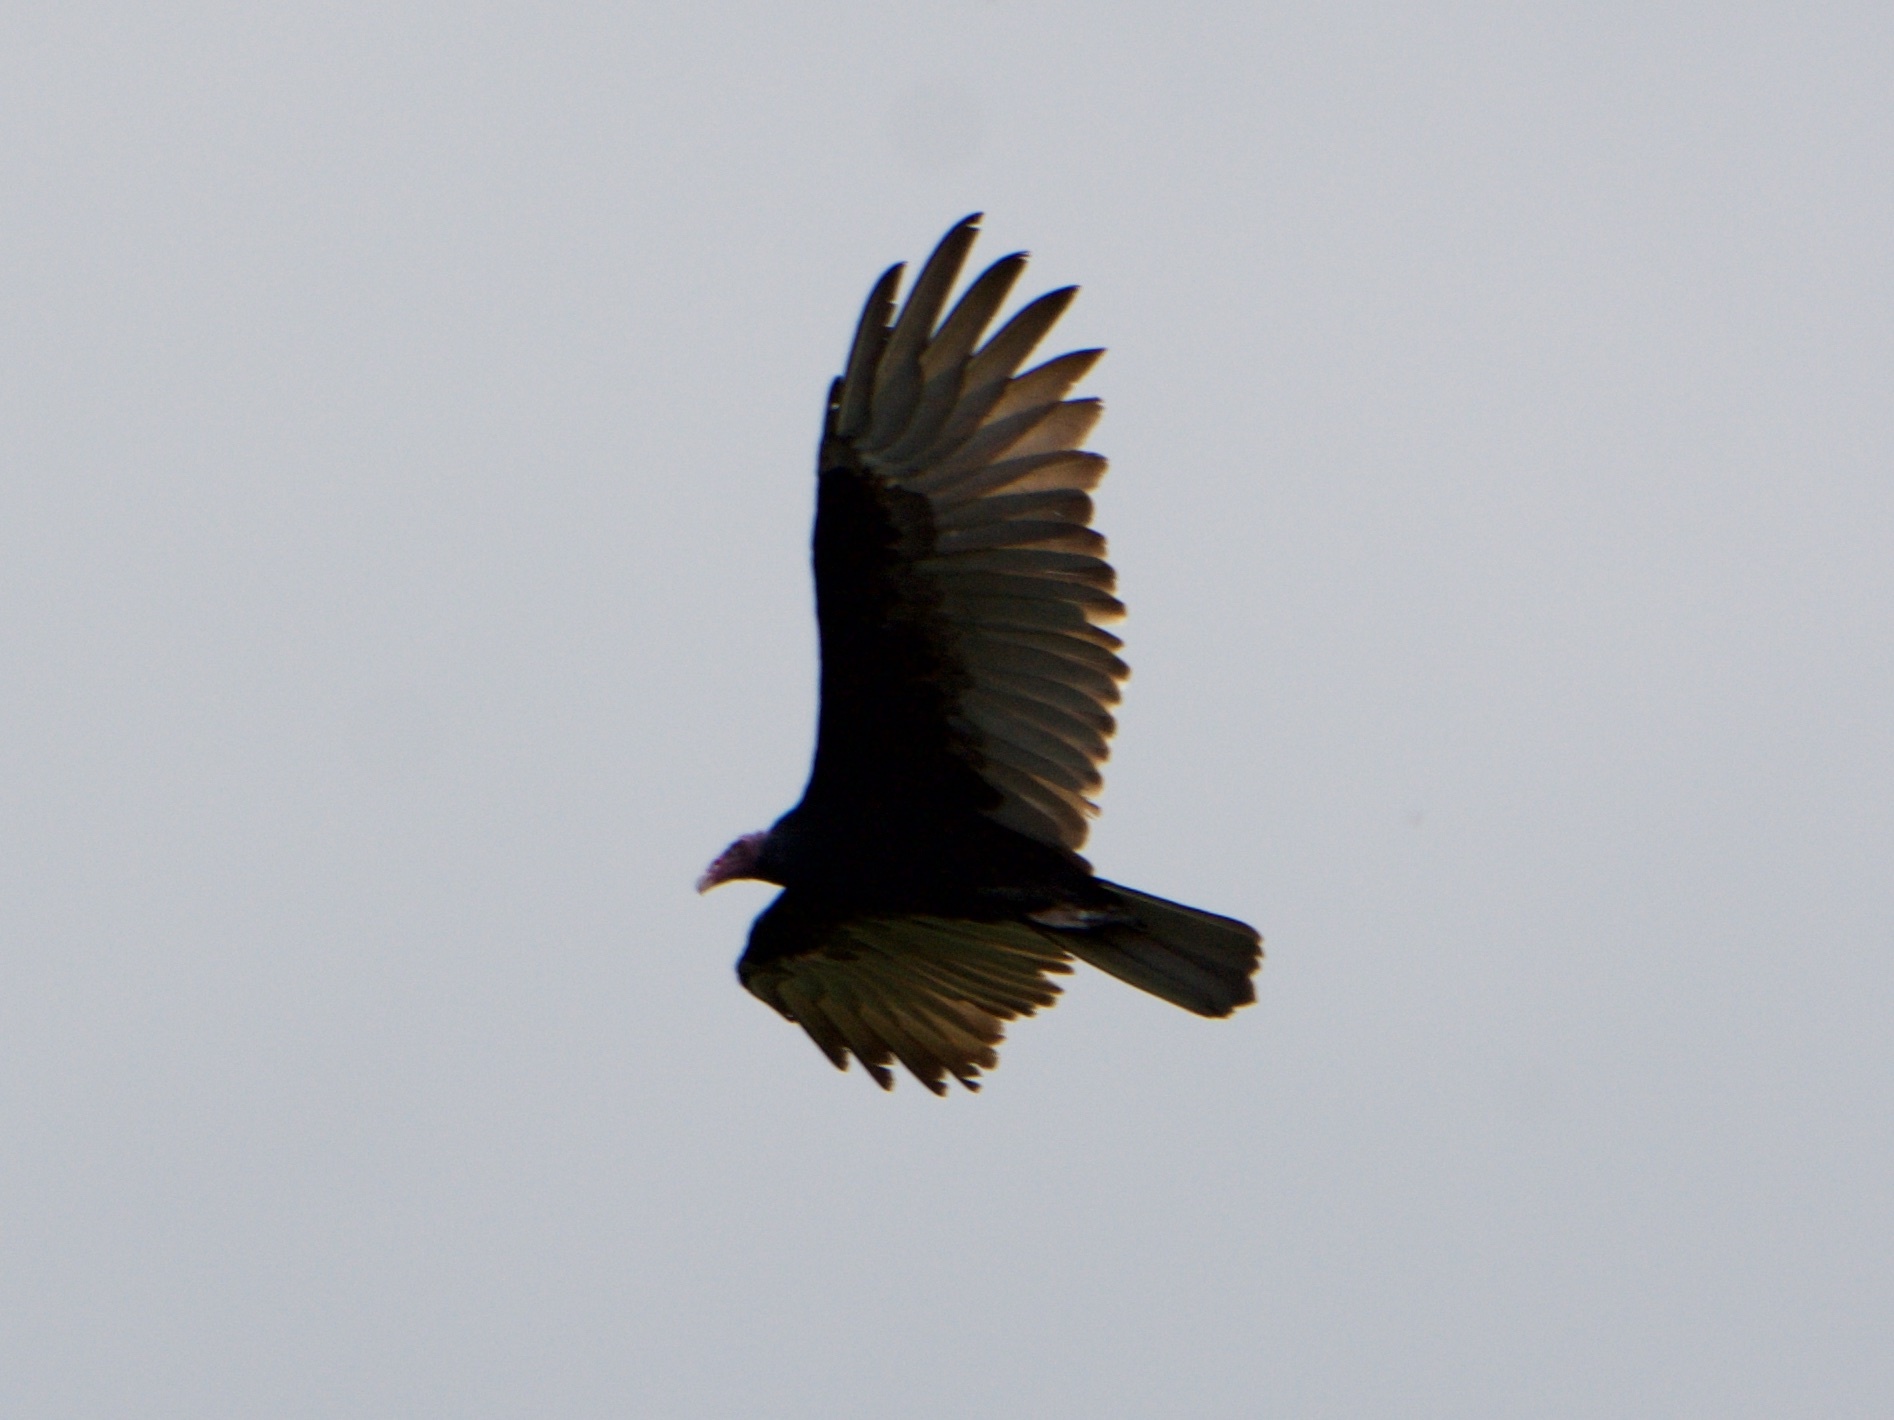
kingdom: Animalia
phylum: Chordata
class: Aves
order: Accipitriformes
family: Cathartidae
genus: Cathartes
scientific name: Cathartes aura
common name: Turkey vulture
